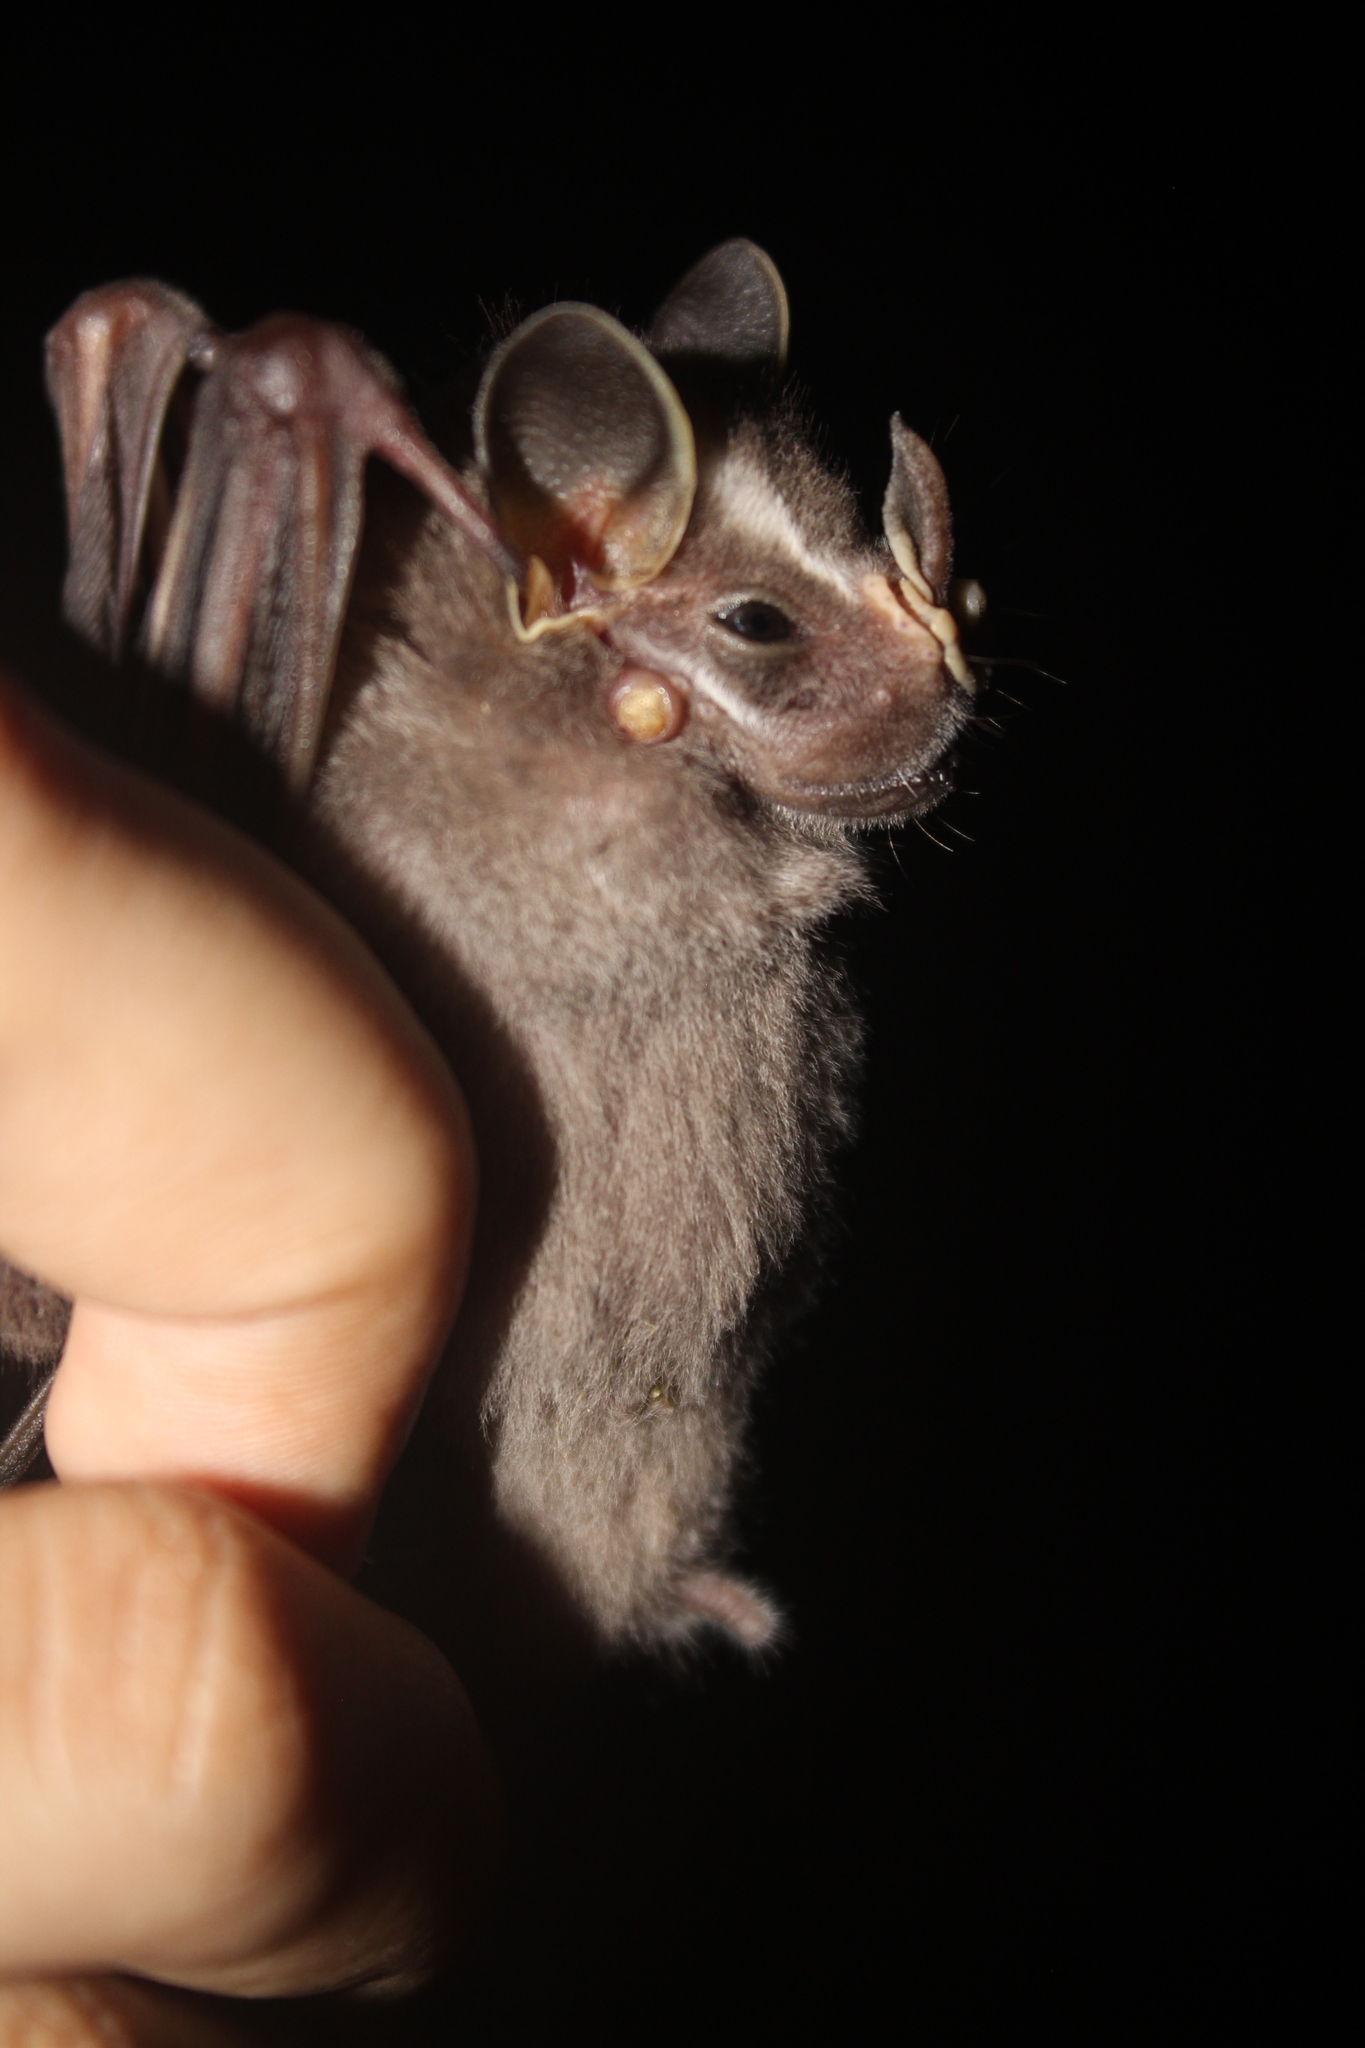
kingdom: Animalia
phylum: Chordata
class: Mammalia
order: Chiroptera
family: Phyllostomidae
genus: Uroderma
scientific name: Uroderma convexum
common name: Pacific tent-making bat
